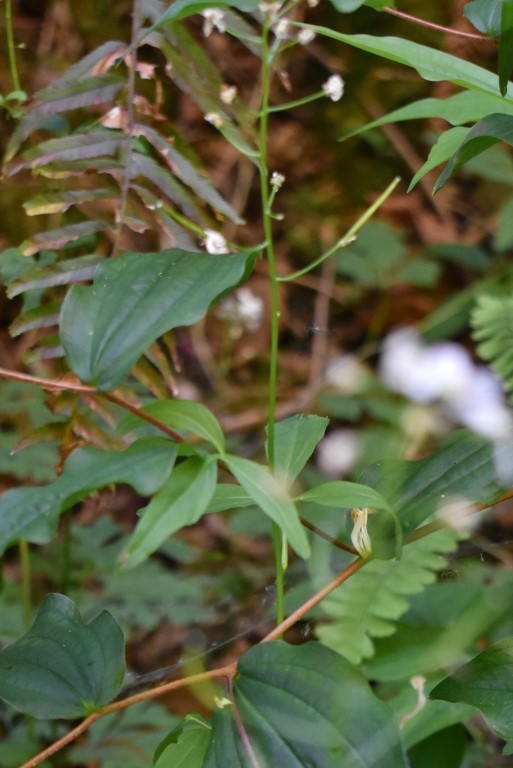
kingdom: Plantae
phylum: Tracheophyta
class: Magnoliopsida
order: Brassicales
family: Brassicaceae
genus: Cardamine
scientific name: Cardamine angulata
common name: Angled bittercress
